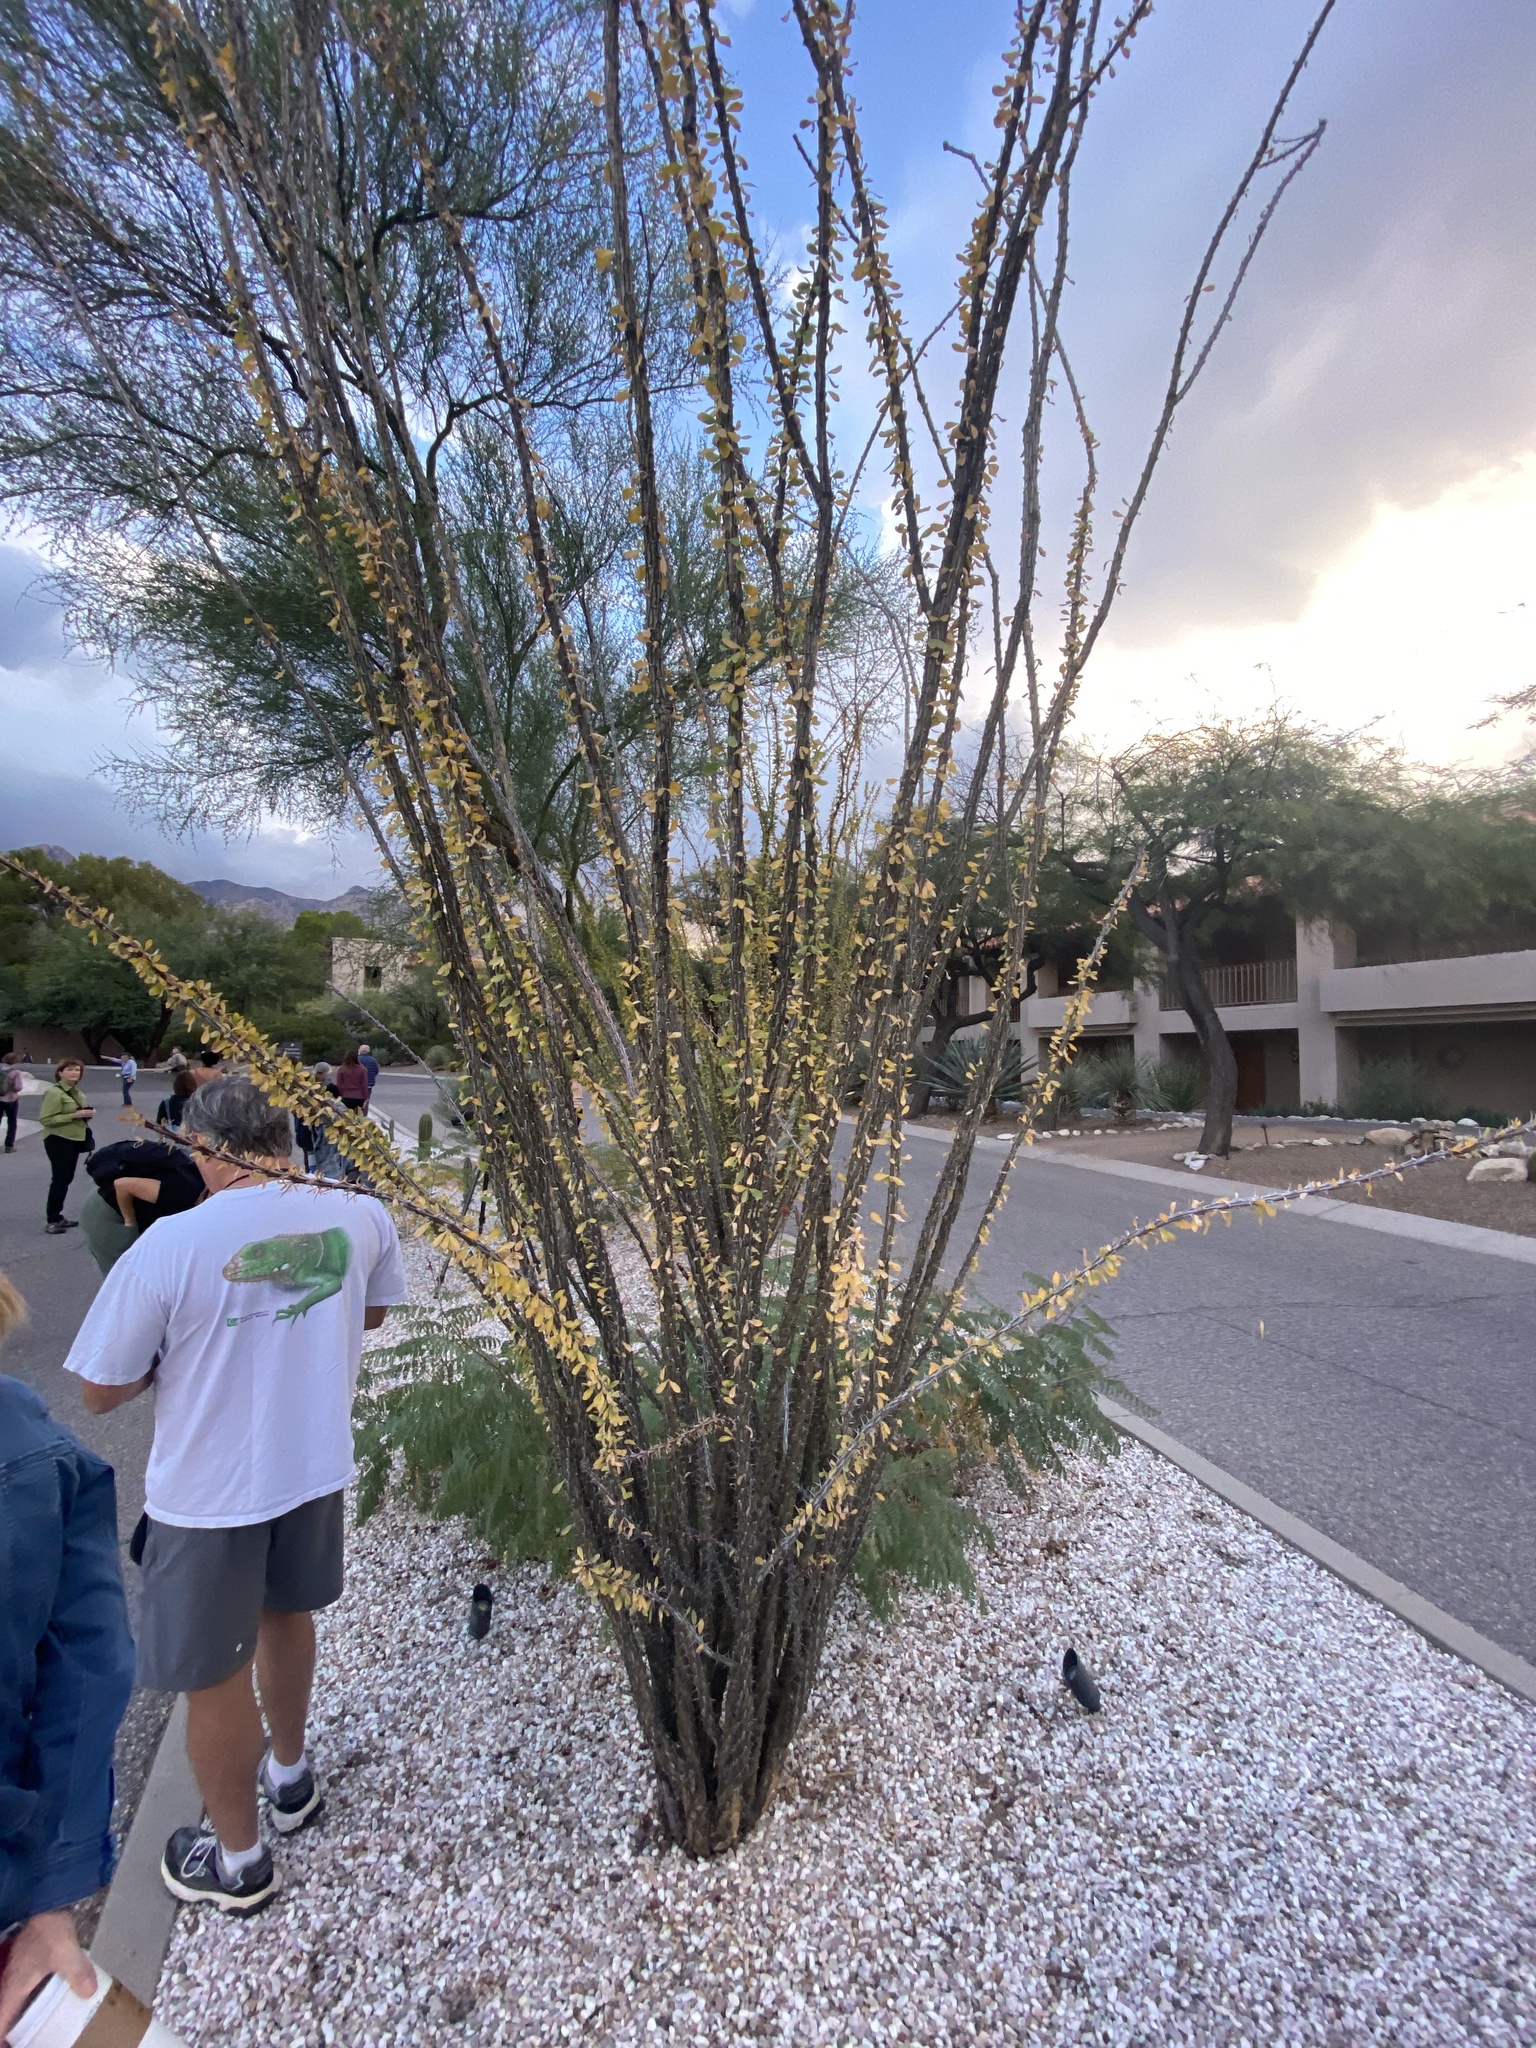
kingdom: Plantae
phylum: Tracheophyta
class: Magnoliopsida
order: Ericales
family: Fouquieriaceae
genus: Fouquieria
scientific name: Fouquieria splendens
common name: Vine-cactus
